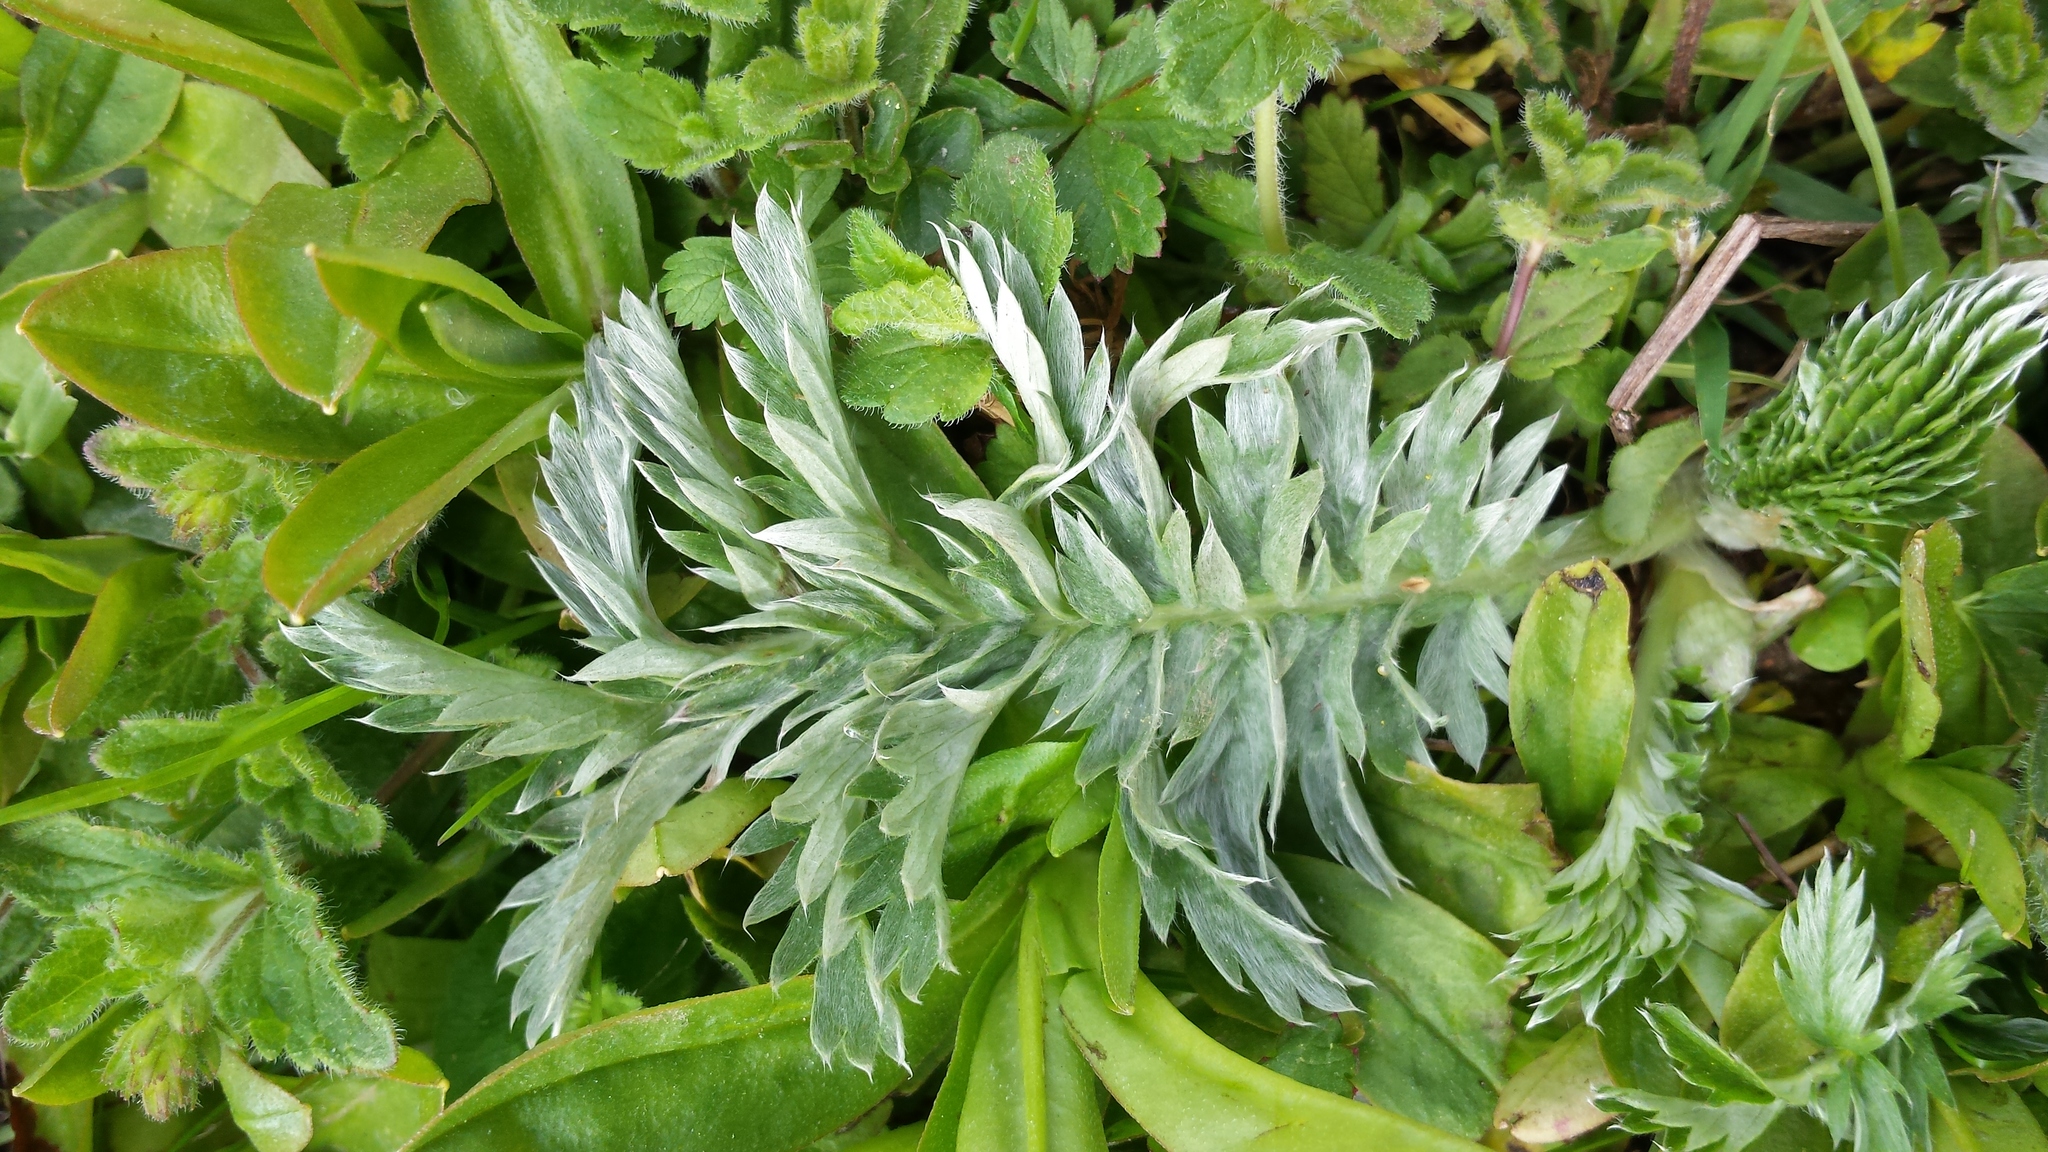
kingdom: Plantae
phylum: Tracheophyta
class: Magnoliopsida
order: Rosales
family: Rosaceae
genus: Argentina
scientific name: Argentina anserina
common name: Common silverweed
